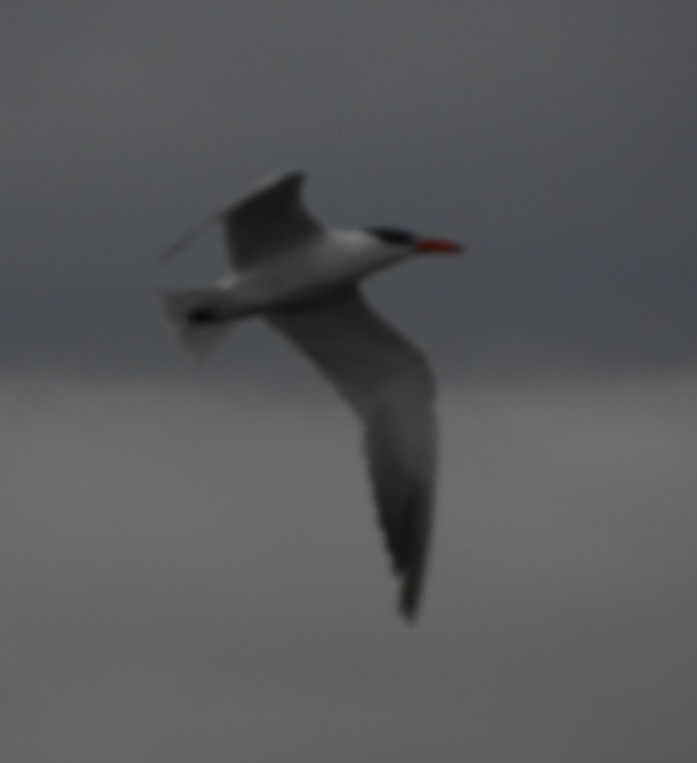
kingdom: Animalia
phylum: Chordata
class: Aves
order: Charadriiformes
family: Laridae
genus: Hydroprogne
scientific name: Hydroprogne caspia
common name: Caspian tern
